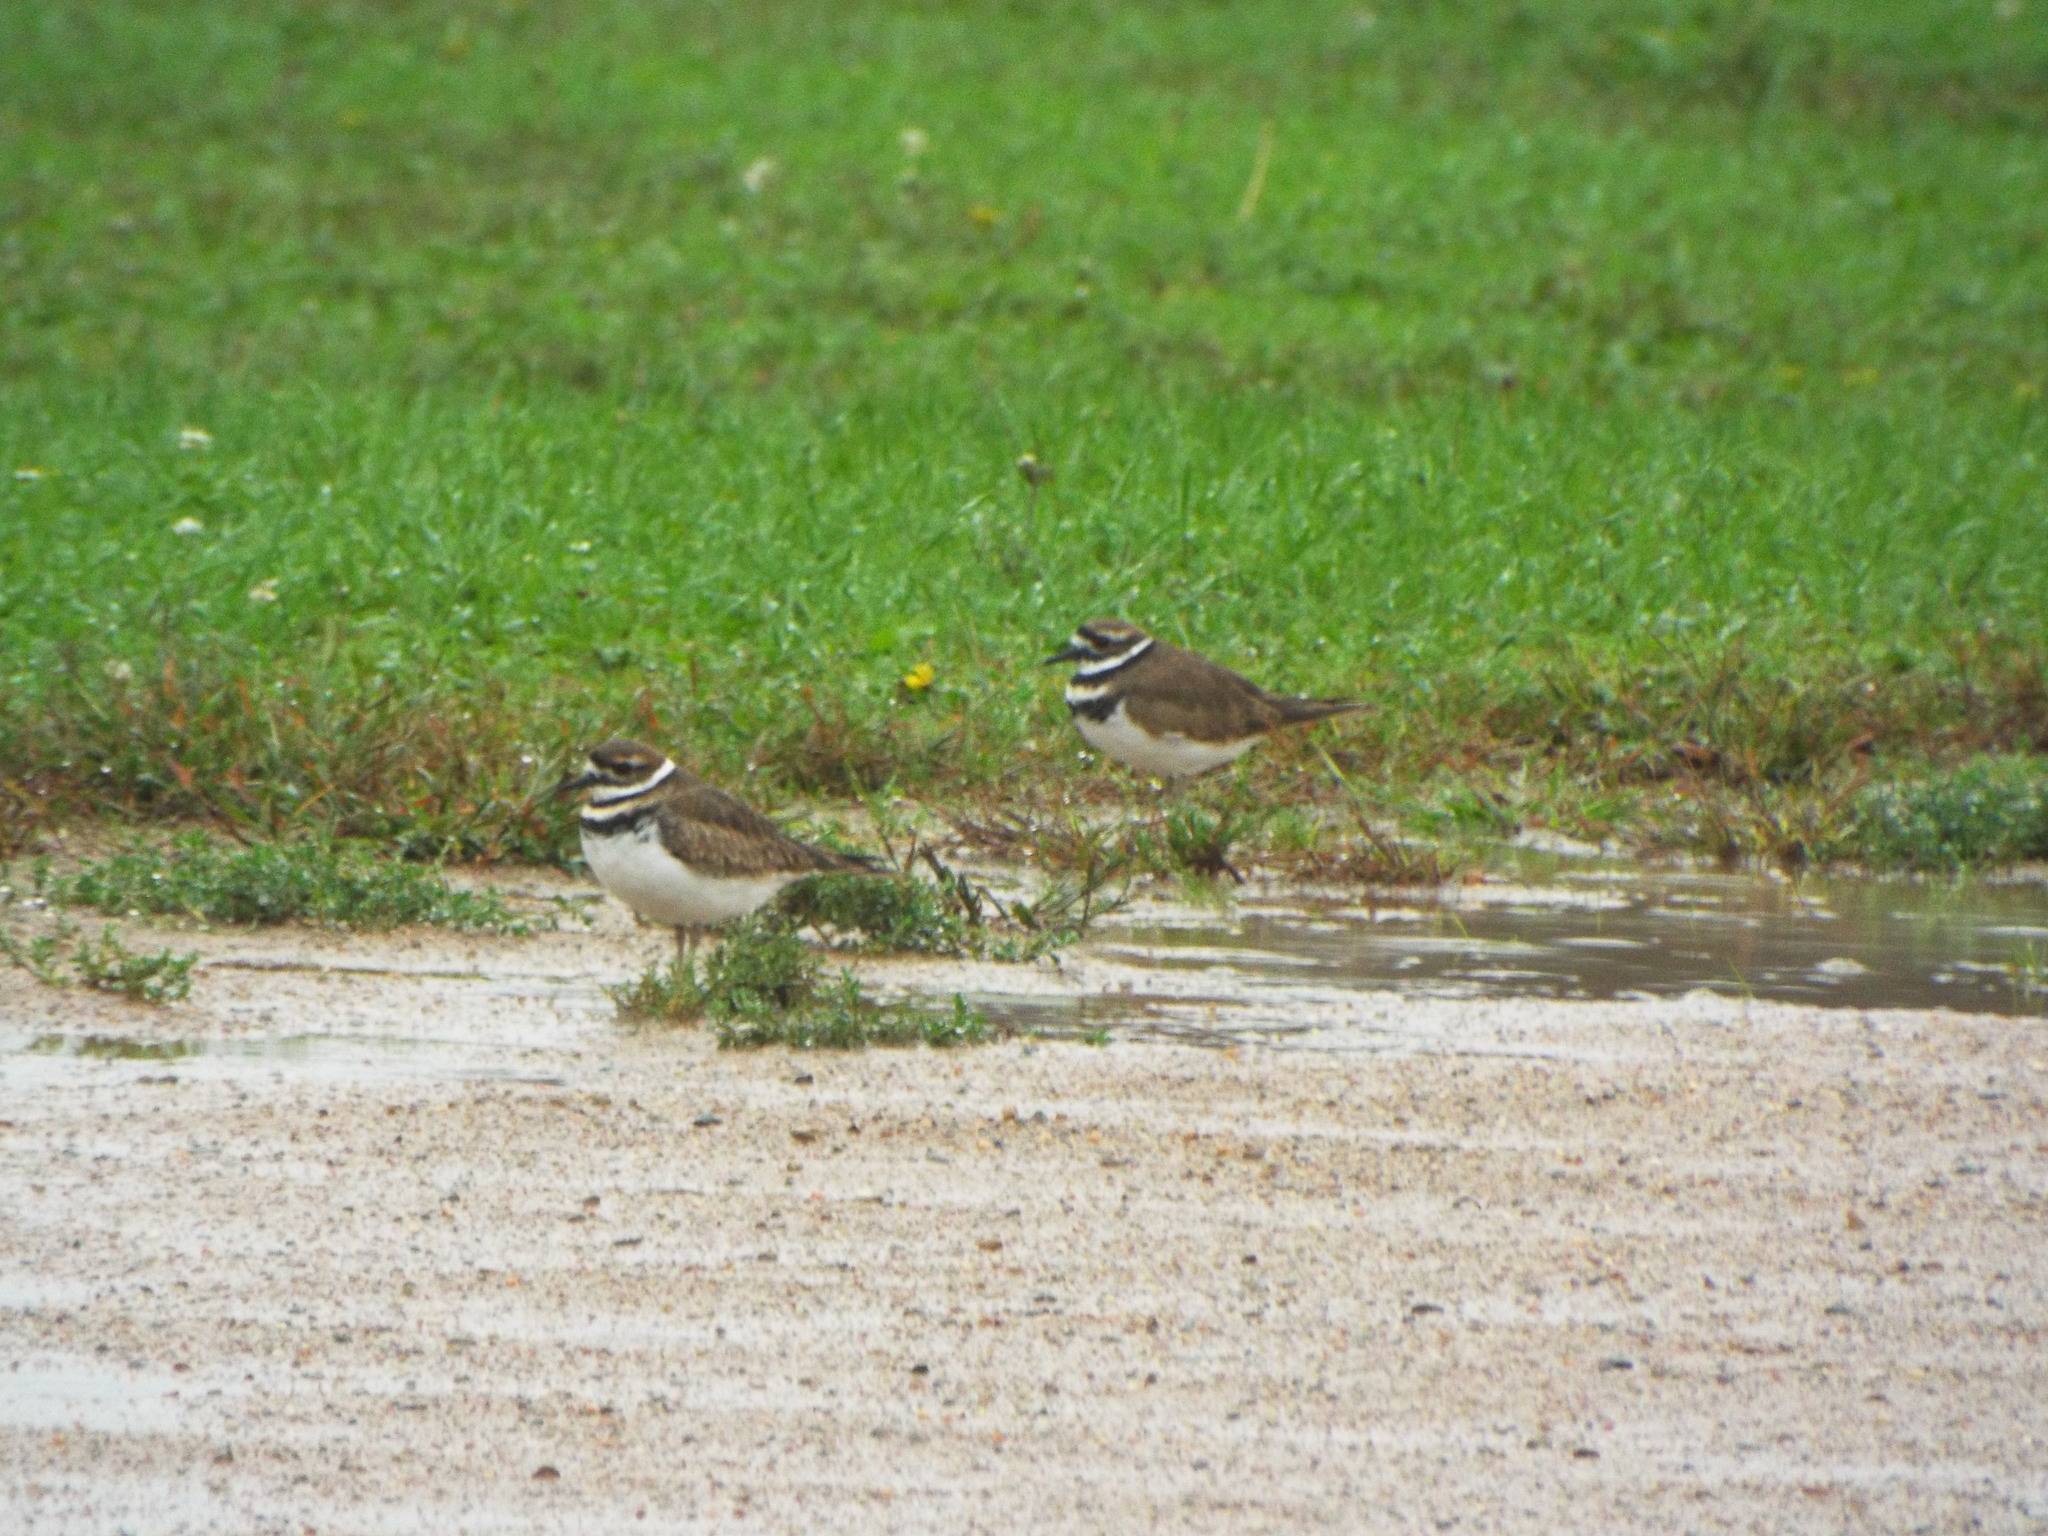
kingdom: Animalia
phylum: Chordata
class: Aves
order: Charadriiformes
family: Charadriidae
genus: Charadrius
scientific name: Charadrius vociferus
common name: Killdeer
